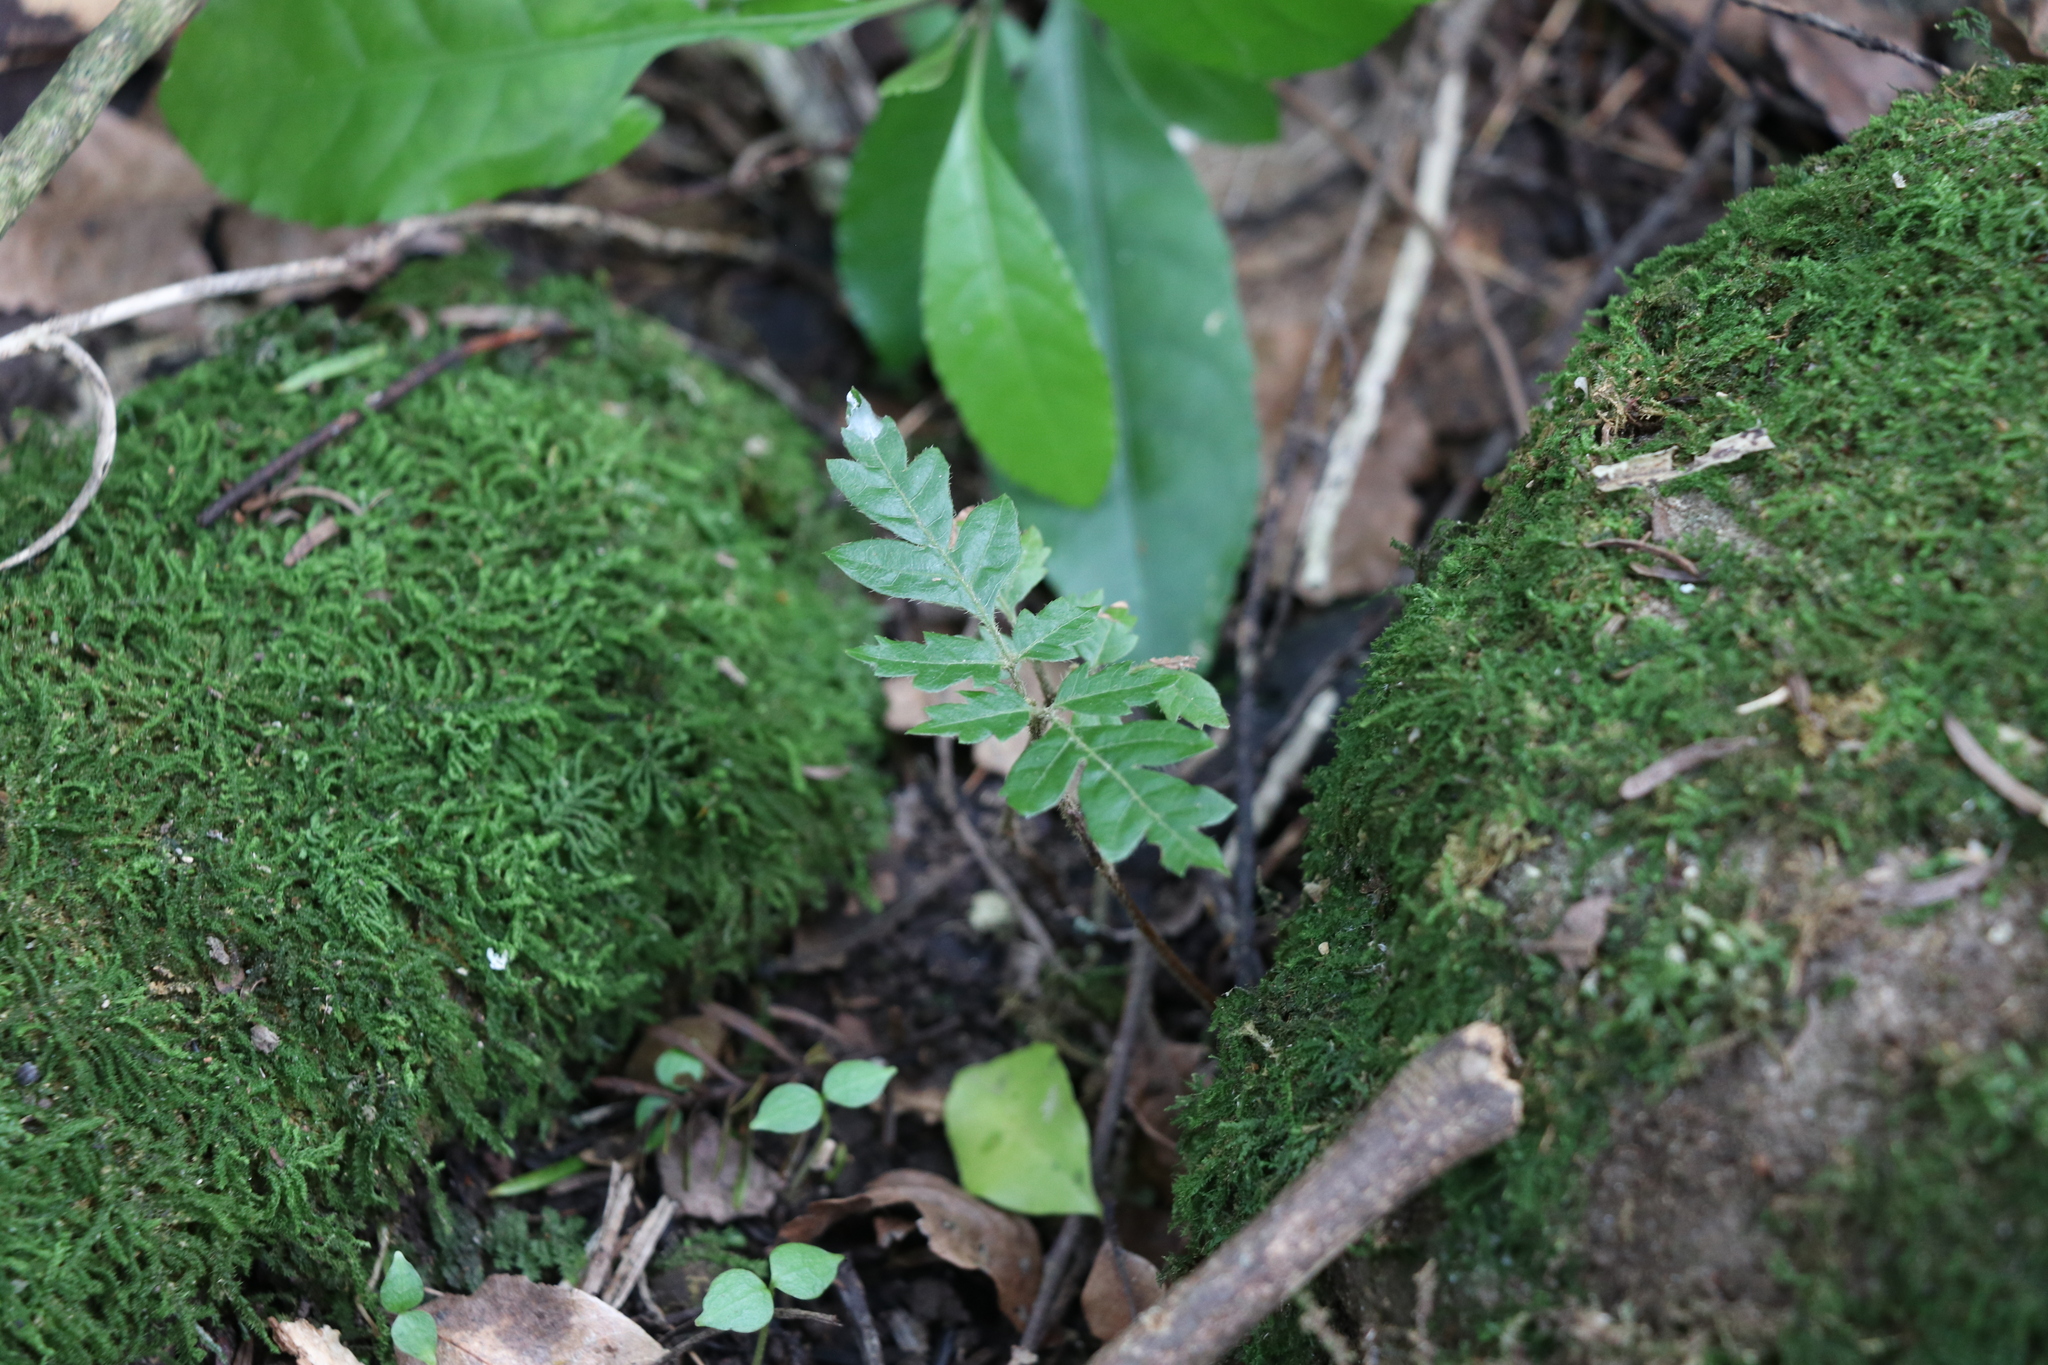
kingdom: Plantae
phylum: Tracheophyta
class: Magnoliopsida
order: Sapindales
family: Sapindaceae
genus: Alectryon
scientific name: Alectryon excelsus
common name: Three kings titoki
